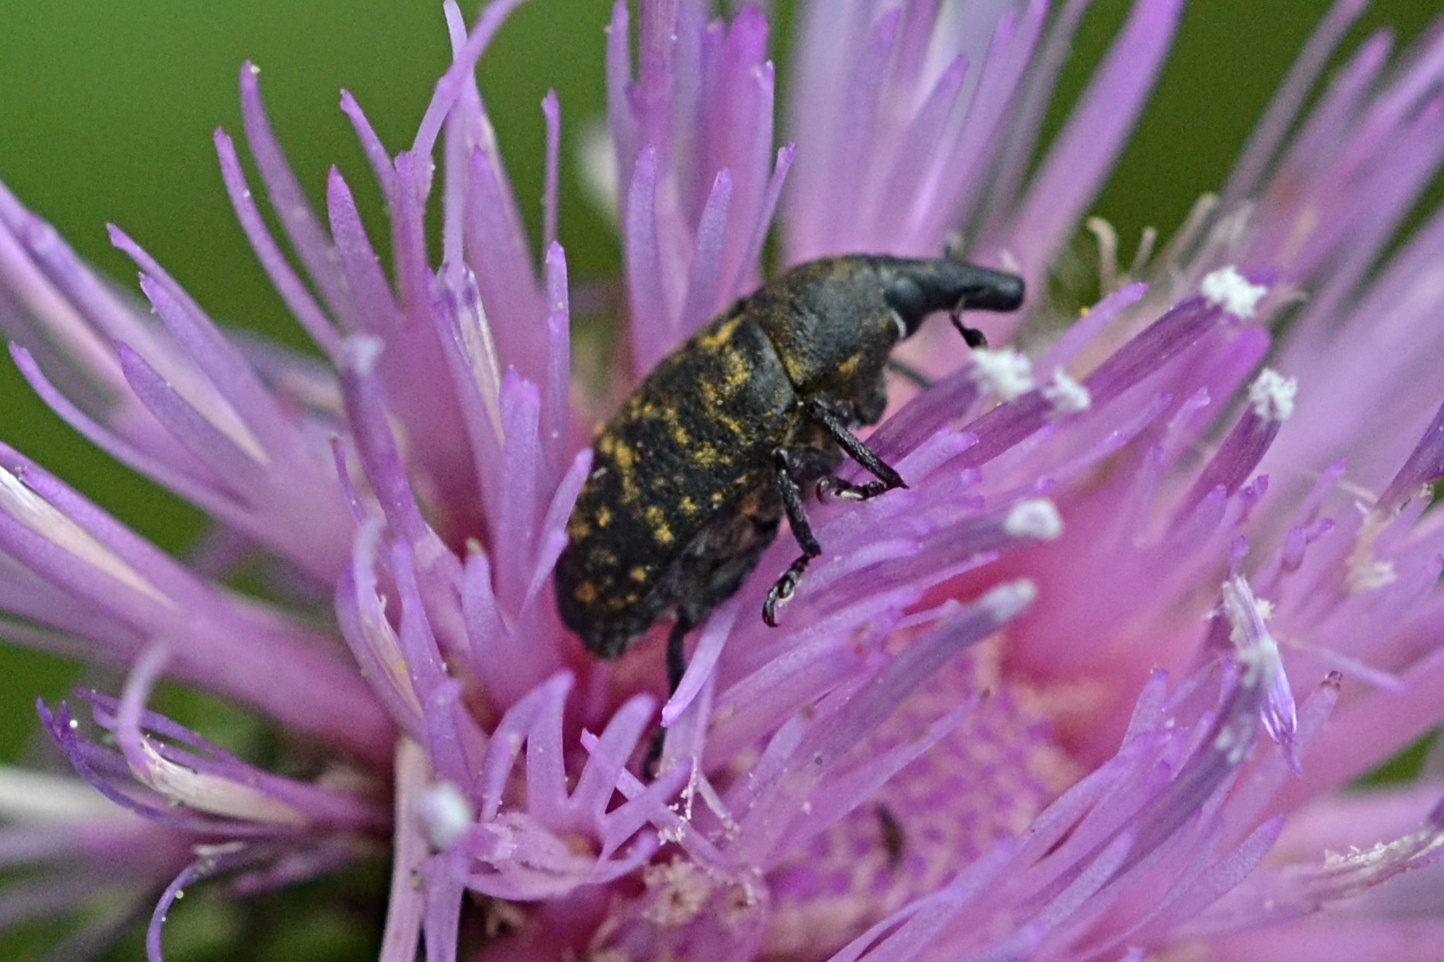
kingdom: Animalia
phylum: Arthropoda
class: Insecta
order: Coleoptera
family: Curculionidae
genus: Larinus
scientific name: Larinus turbinatus
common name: Weevil
